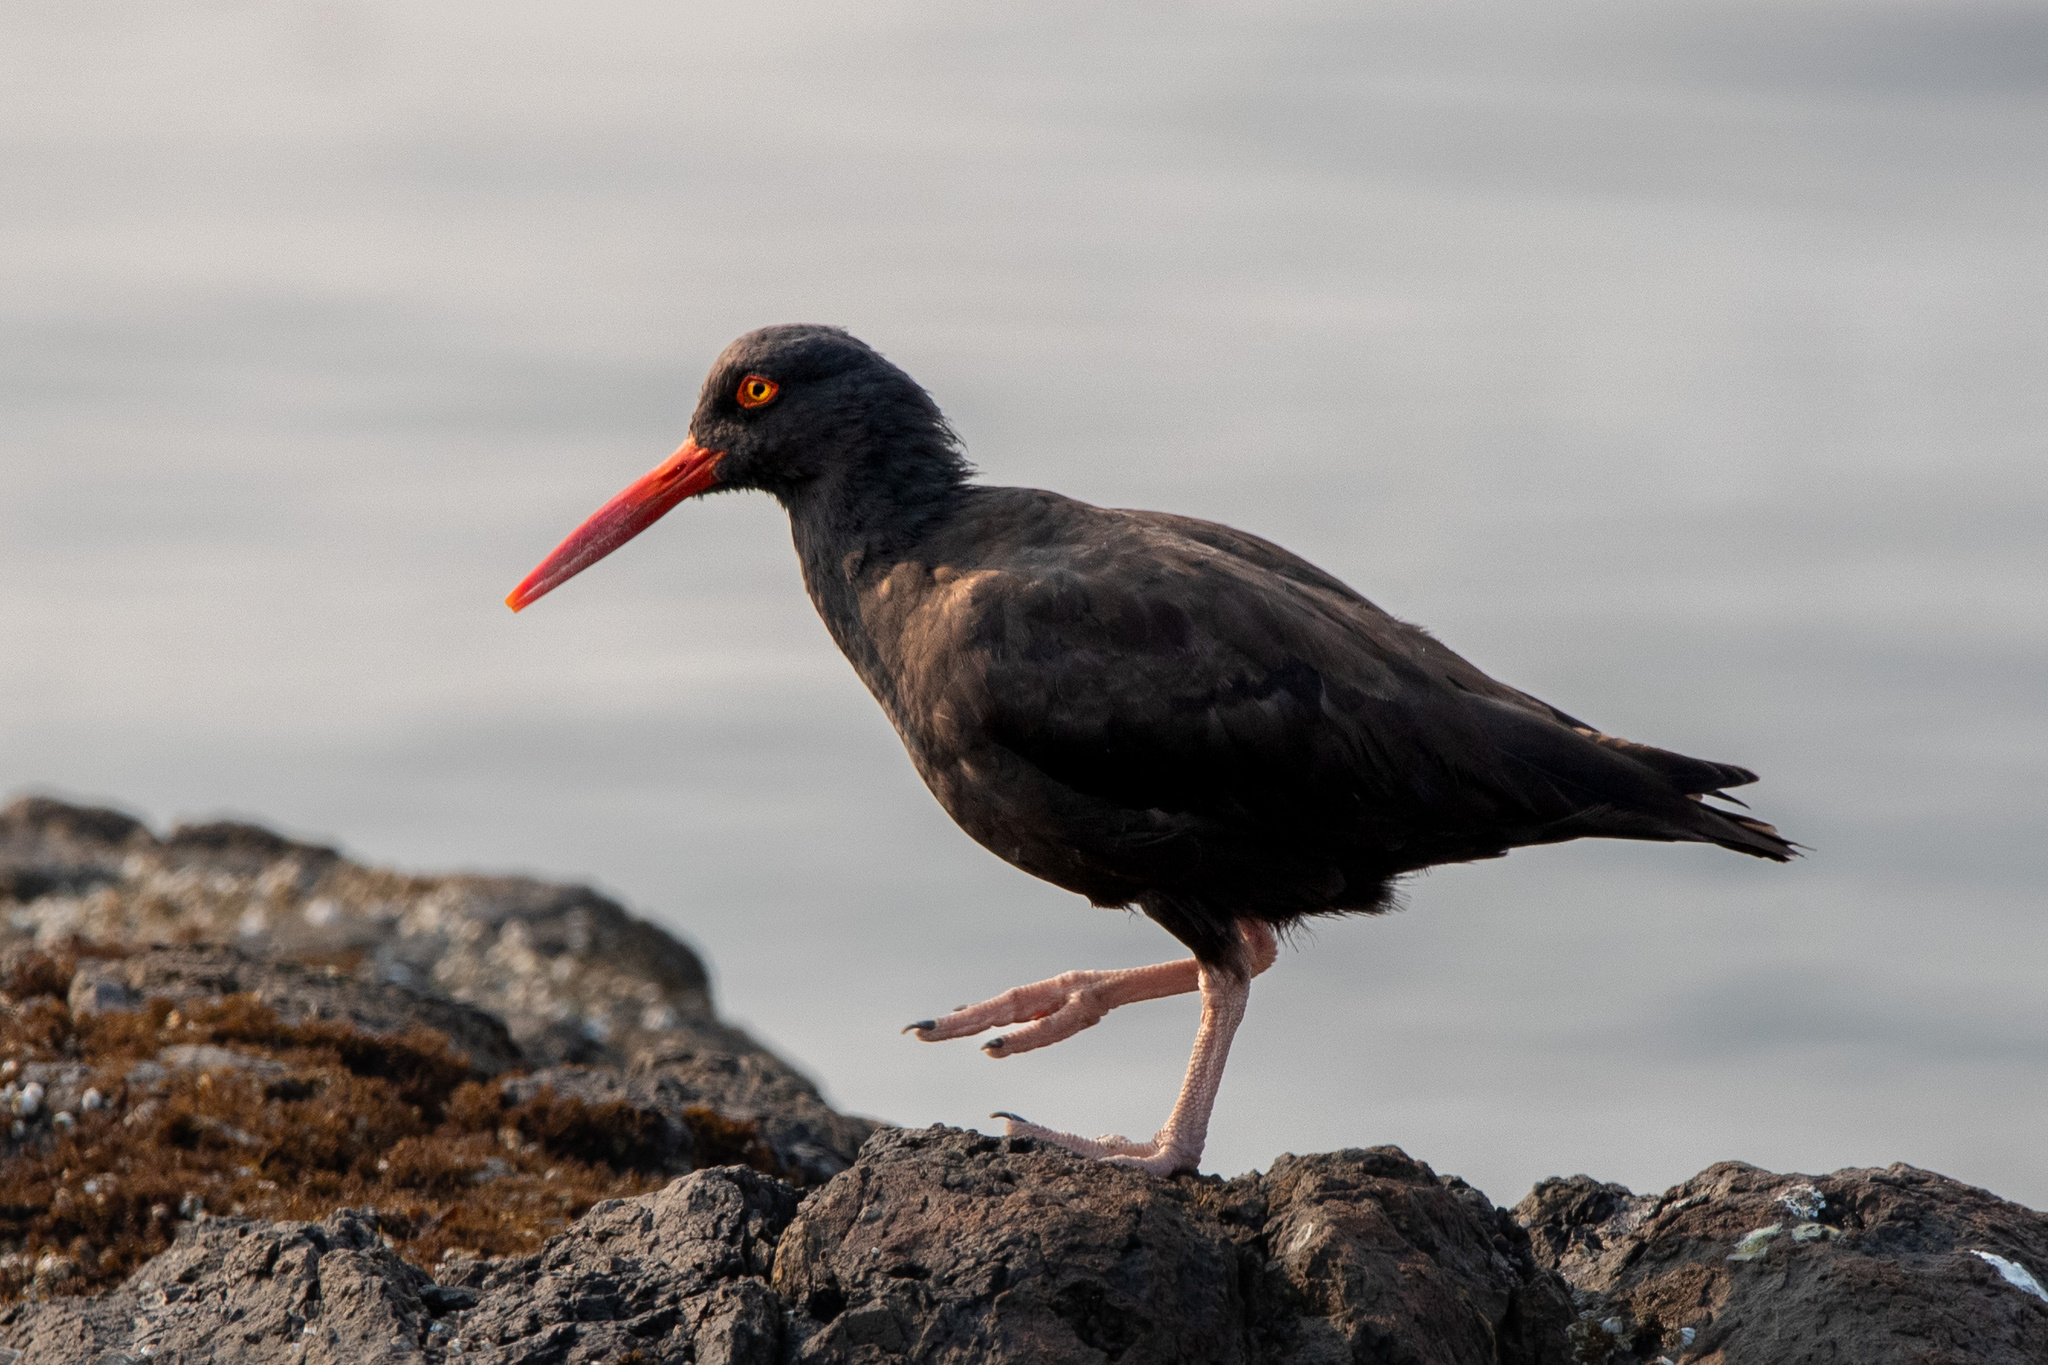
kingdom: Animalia
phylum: Chordata
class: Aves
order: Charadriiformes
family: Haematopodidae
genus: Haematopus
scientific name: Haematopus bachmani
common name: Black oystercatcher
